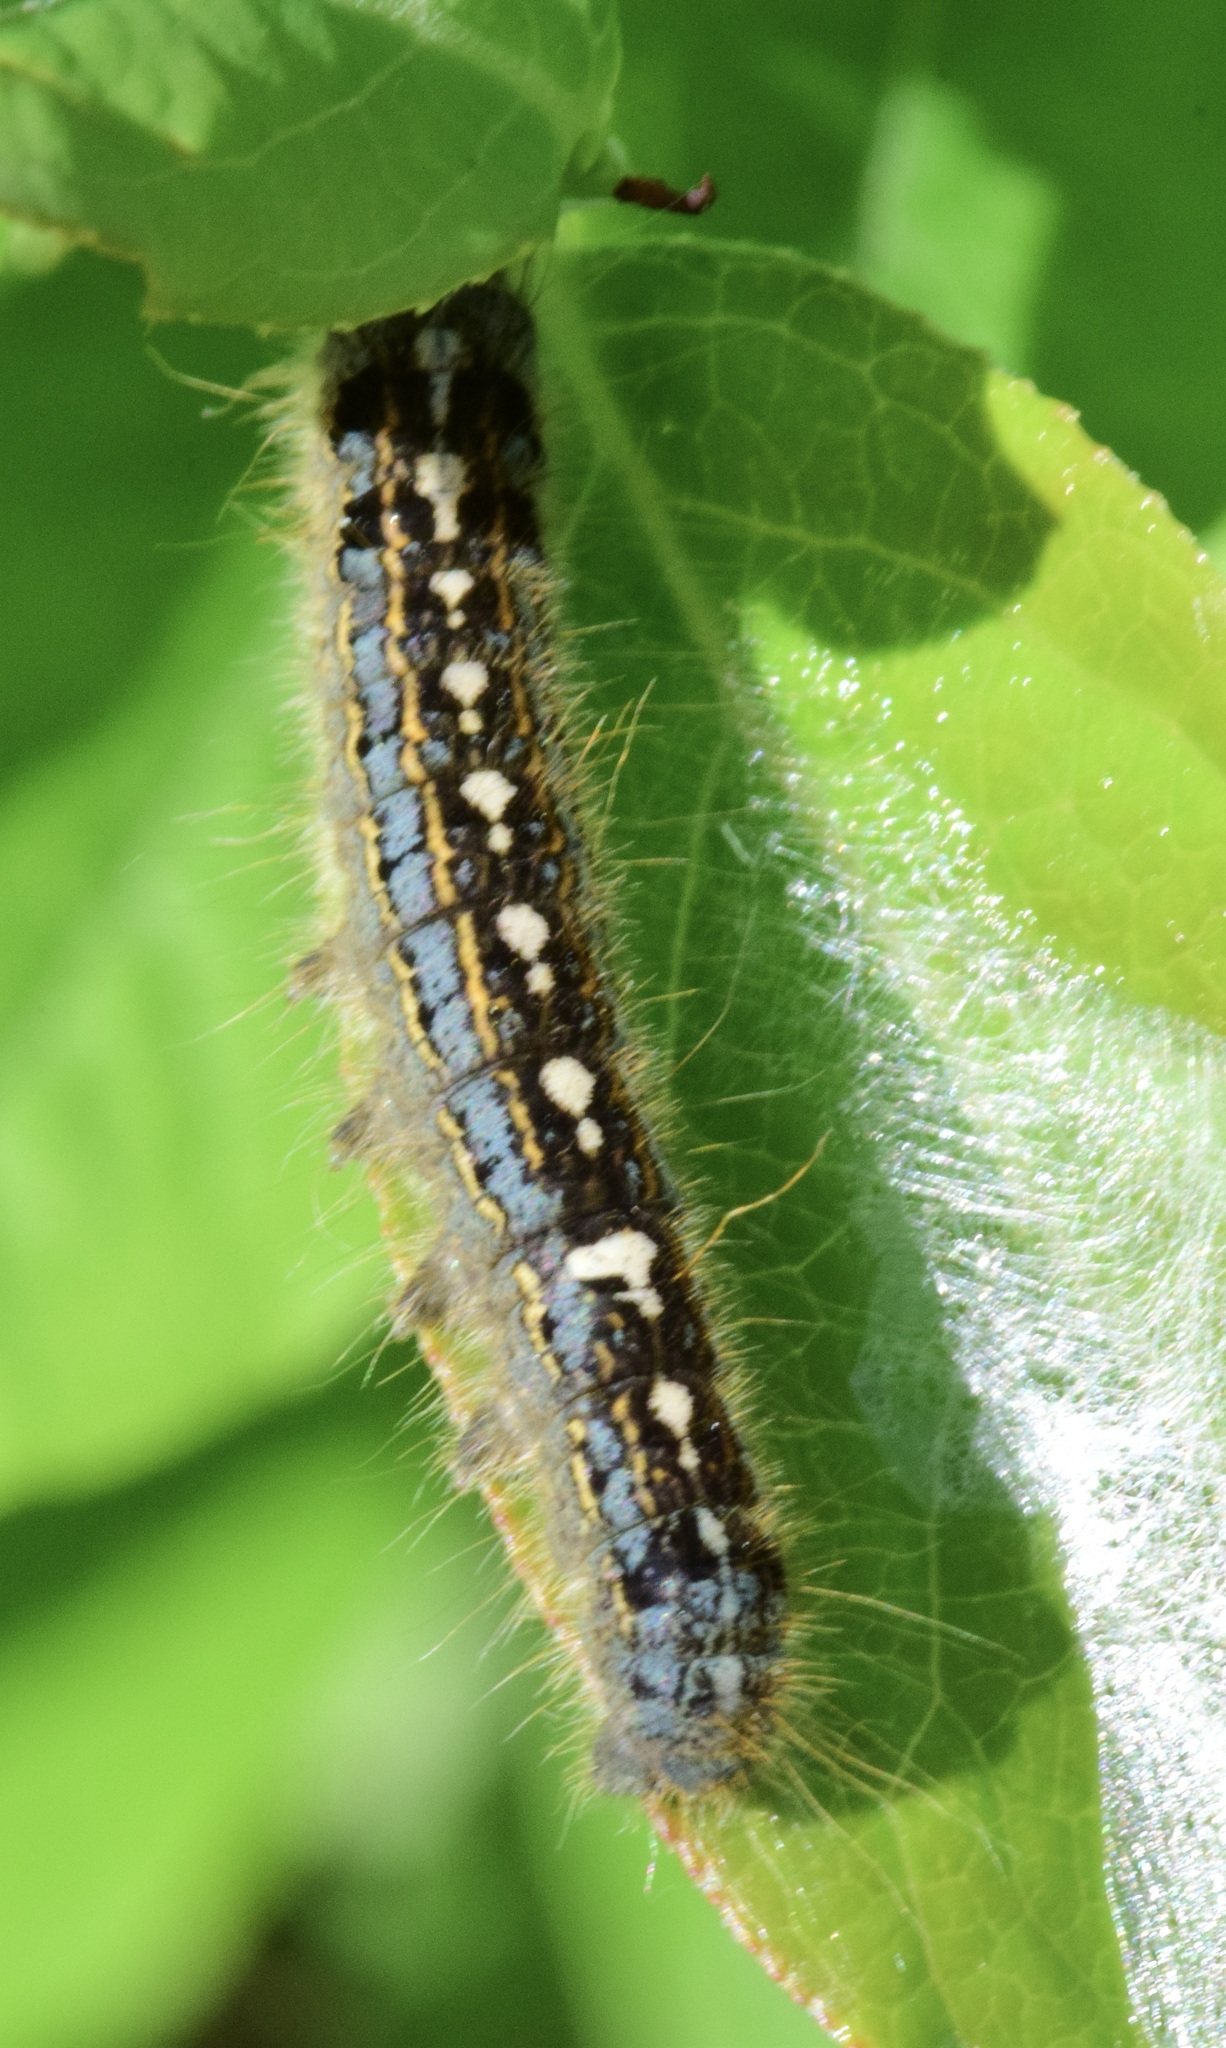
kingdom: Animalia
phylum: Arthropoda
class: Insecta
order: Lepidoptera
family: Lasiocampidae
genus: Malacosoma
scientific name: Malacosoma disstria
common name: Forest tent caterpillar
